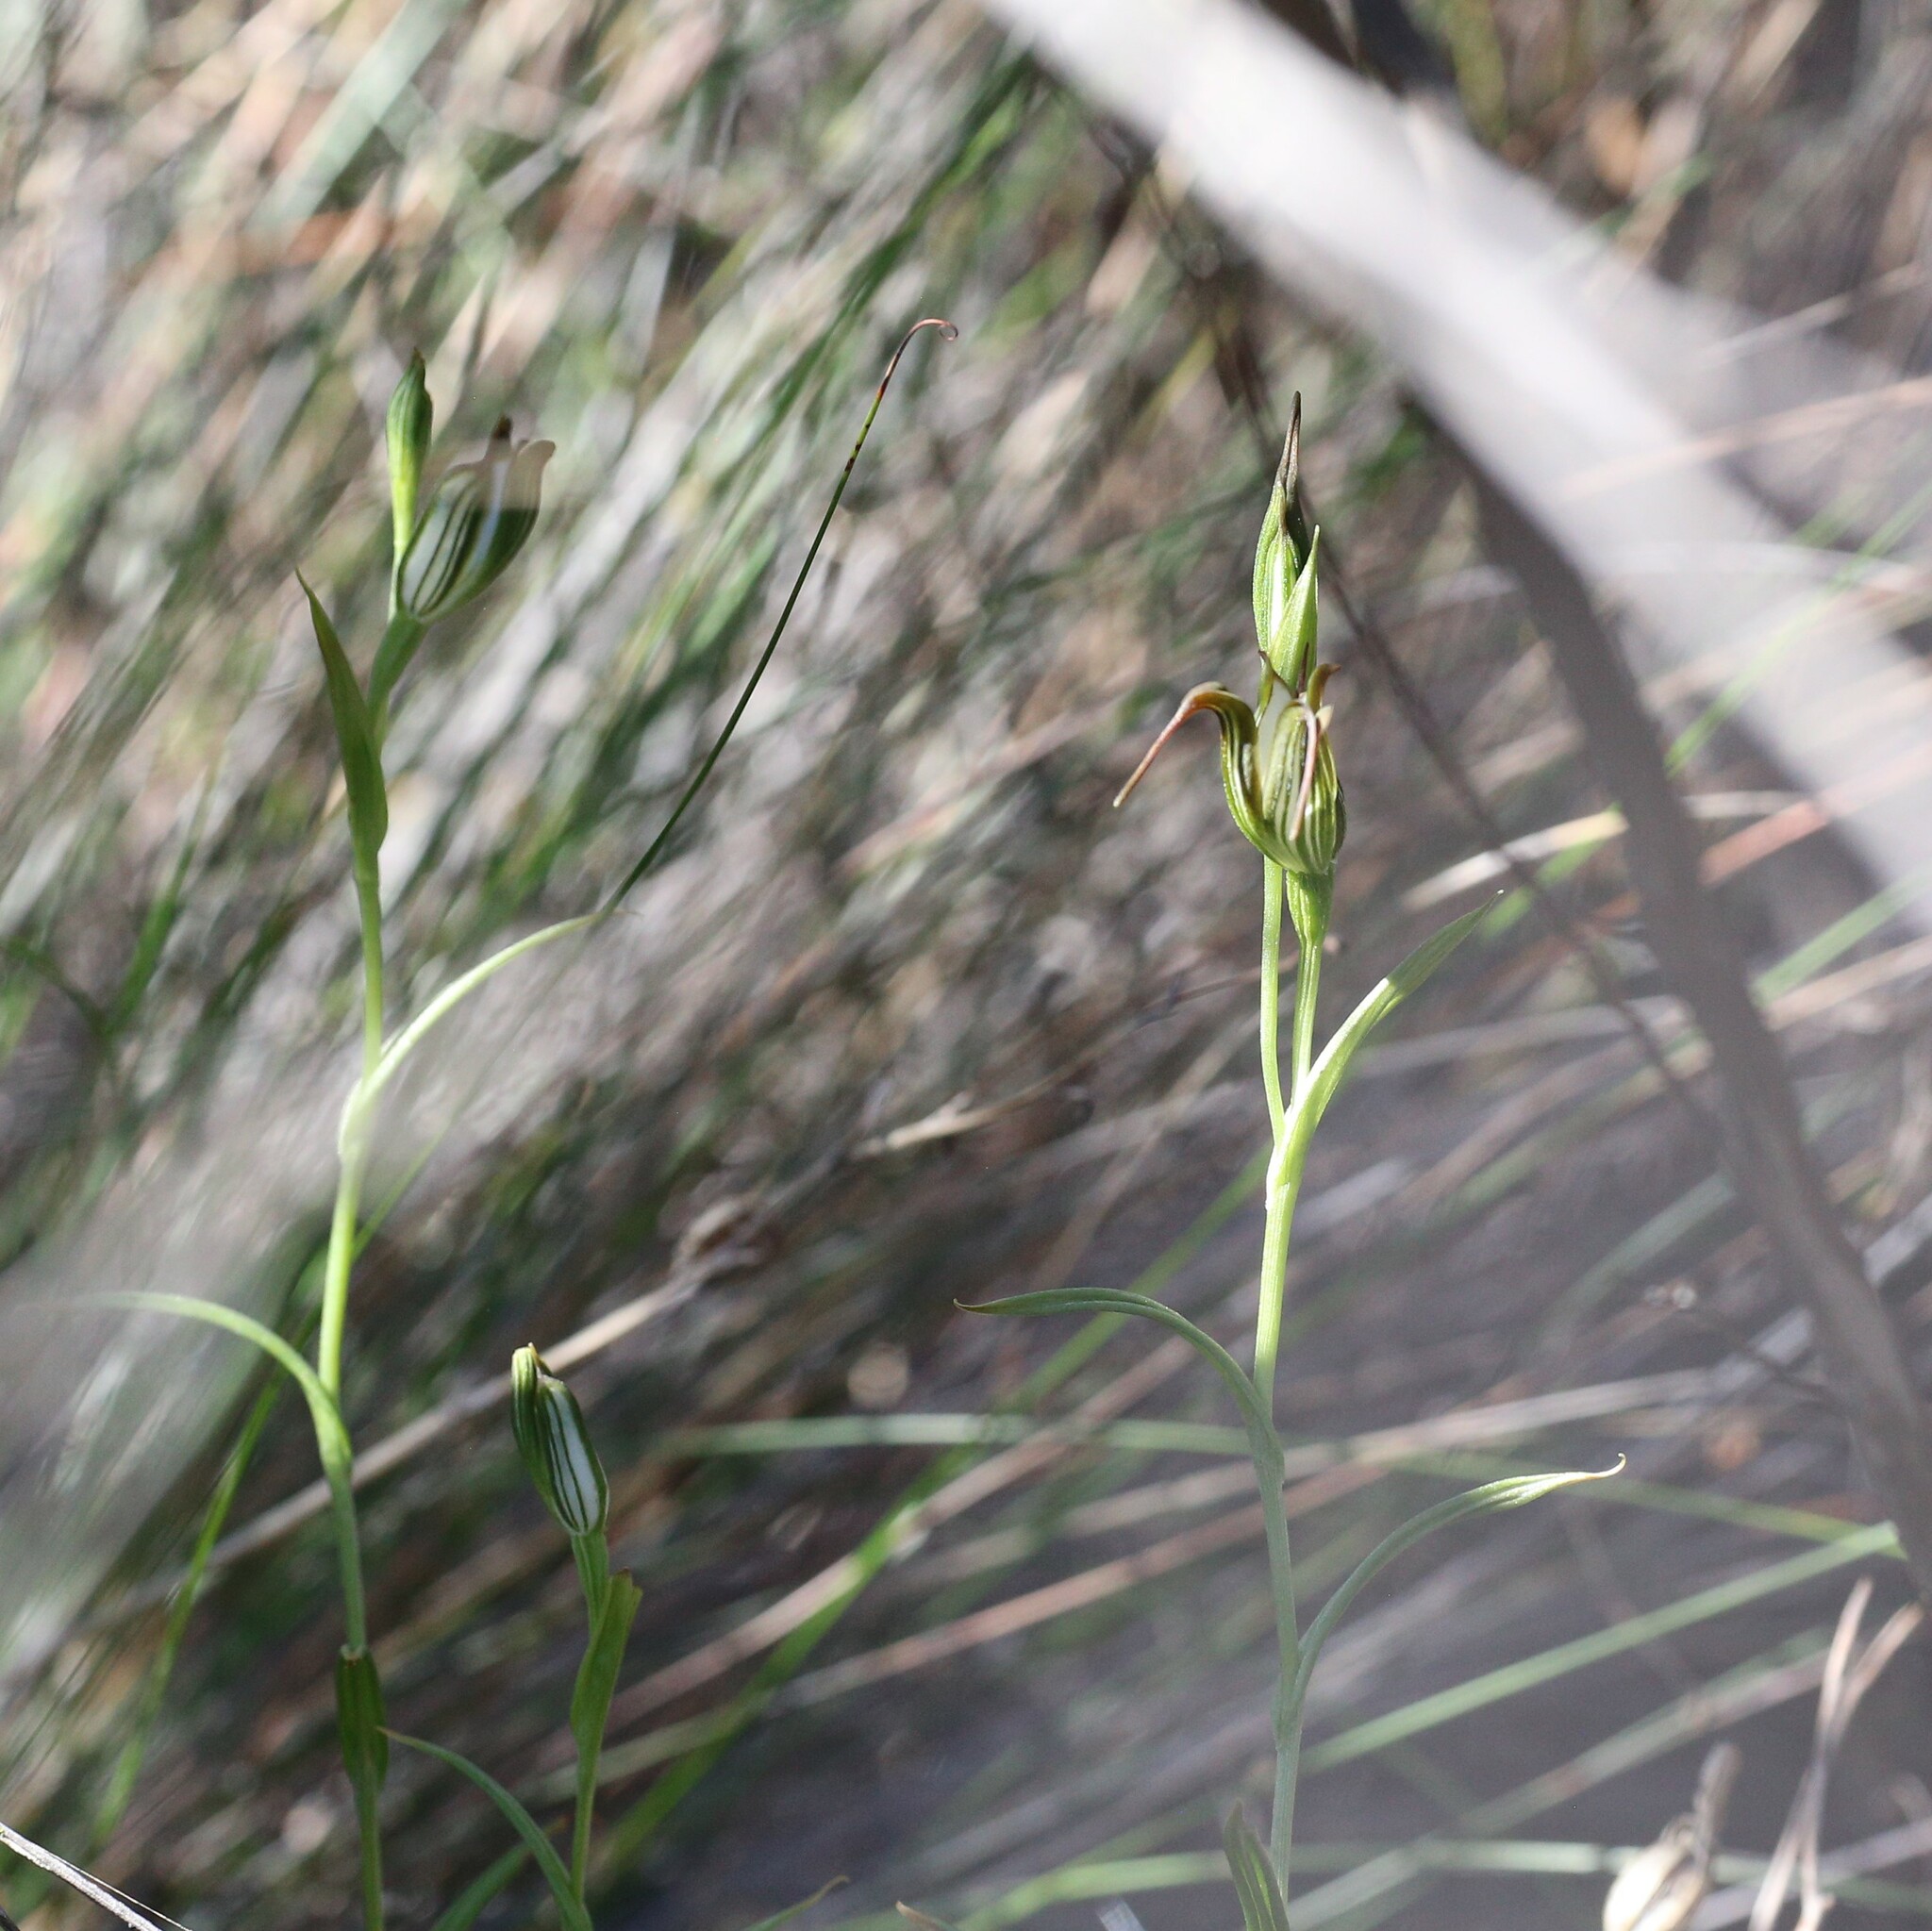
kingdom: Plantae
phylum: Tracheophyta
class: Liliopsida
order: Asparagales
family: Orchidaceae
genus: Pterostylis
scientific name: Pterostylis recurva
